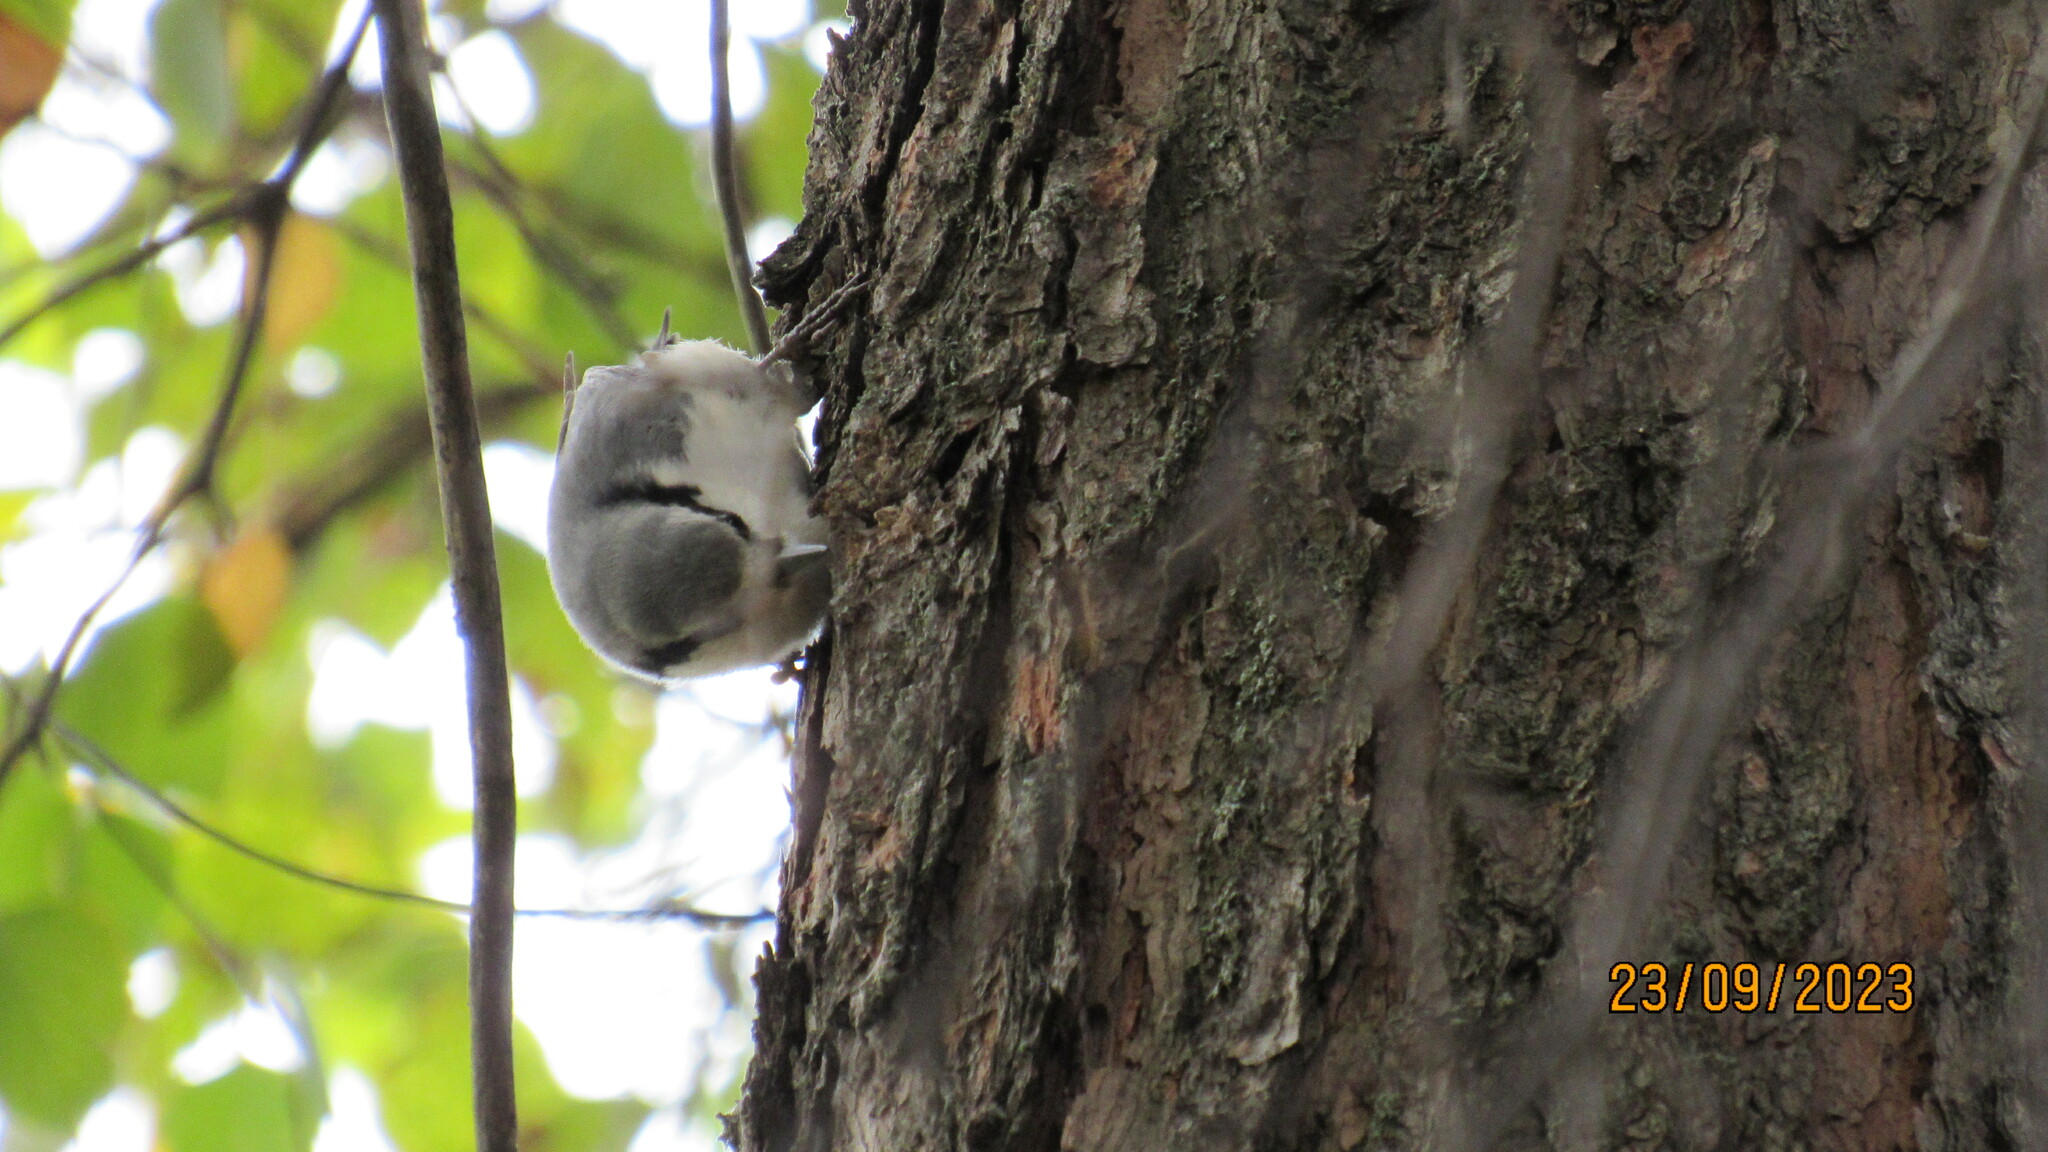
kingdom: Animalia
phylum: Chordata
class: Aves
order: Passeriformes
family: Sittidae
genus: Sitta
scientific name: Sitta europaea
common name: Eurasian nuthatch
